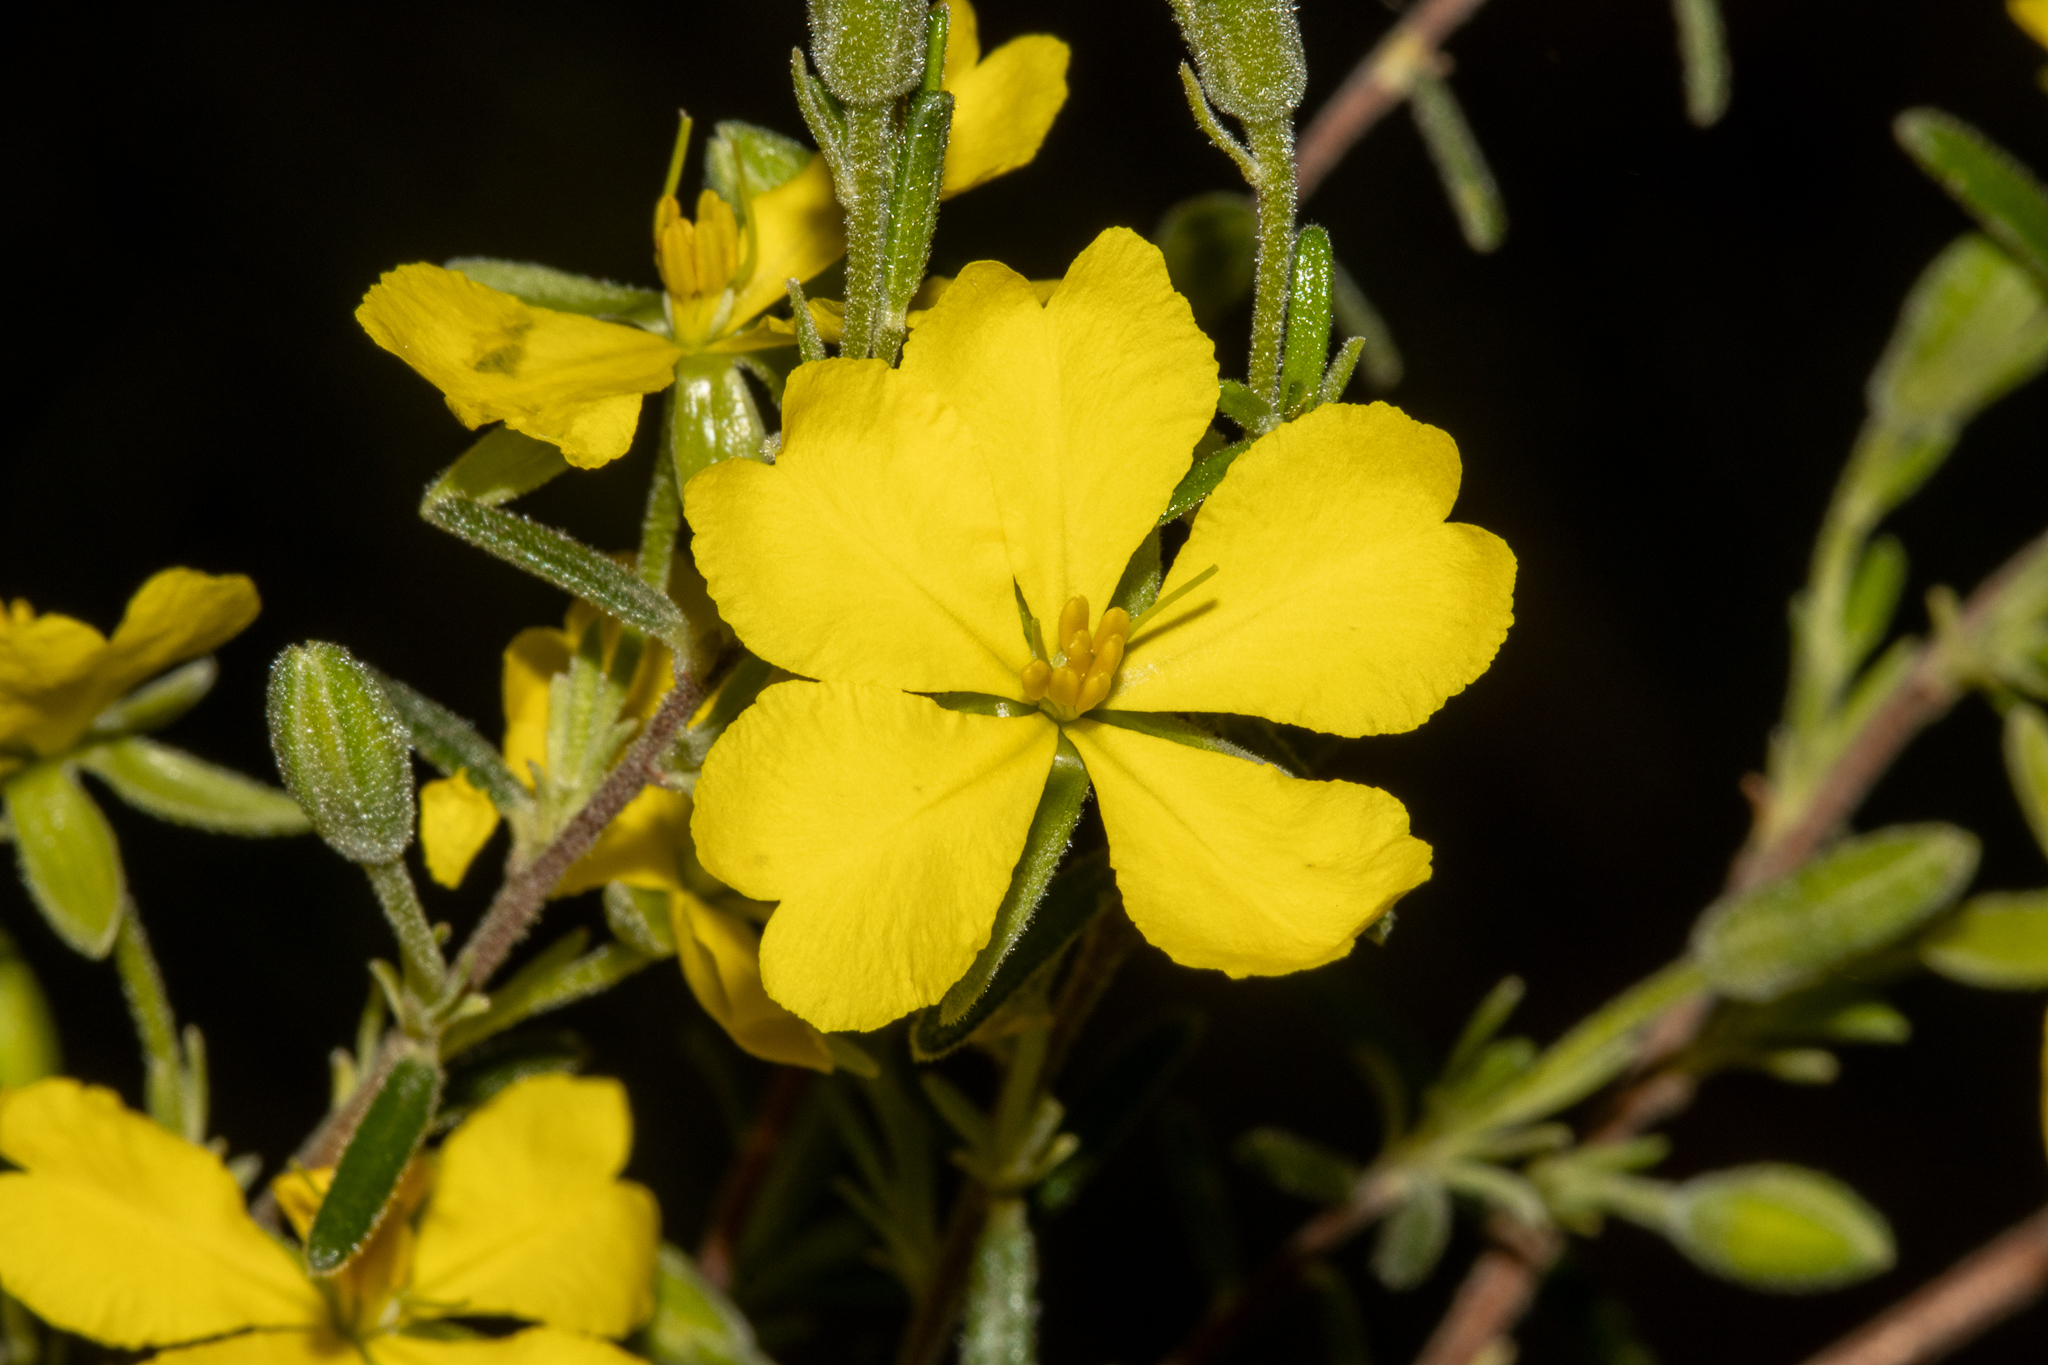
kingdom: Plantae
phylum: Tracheophyta
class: Magnoliopsida
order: Dilleniales
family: Dilleniaceae
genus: Hibbertia
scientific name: Hibbertia australis
